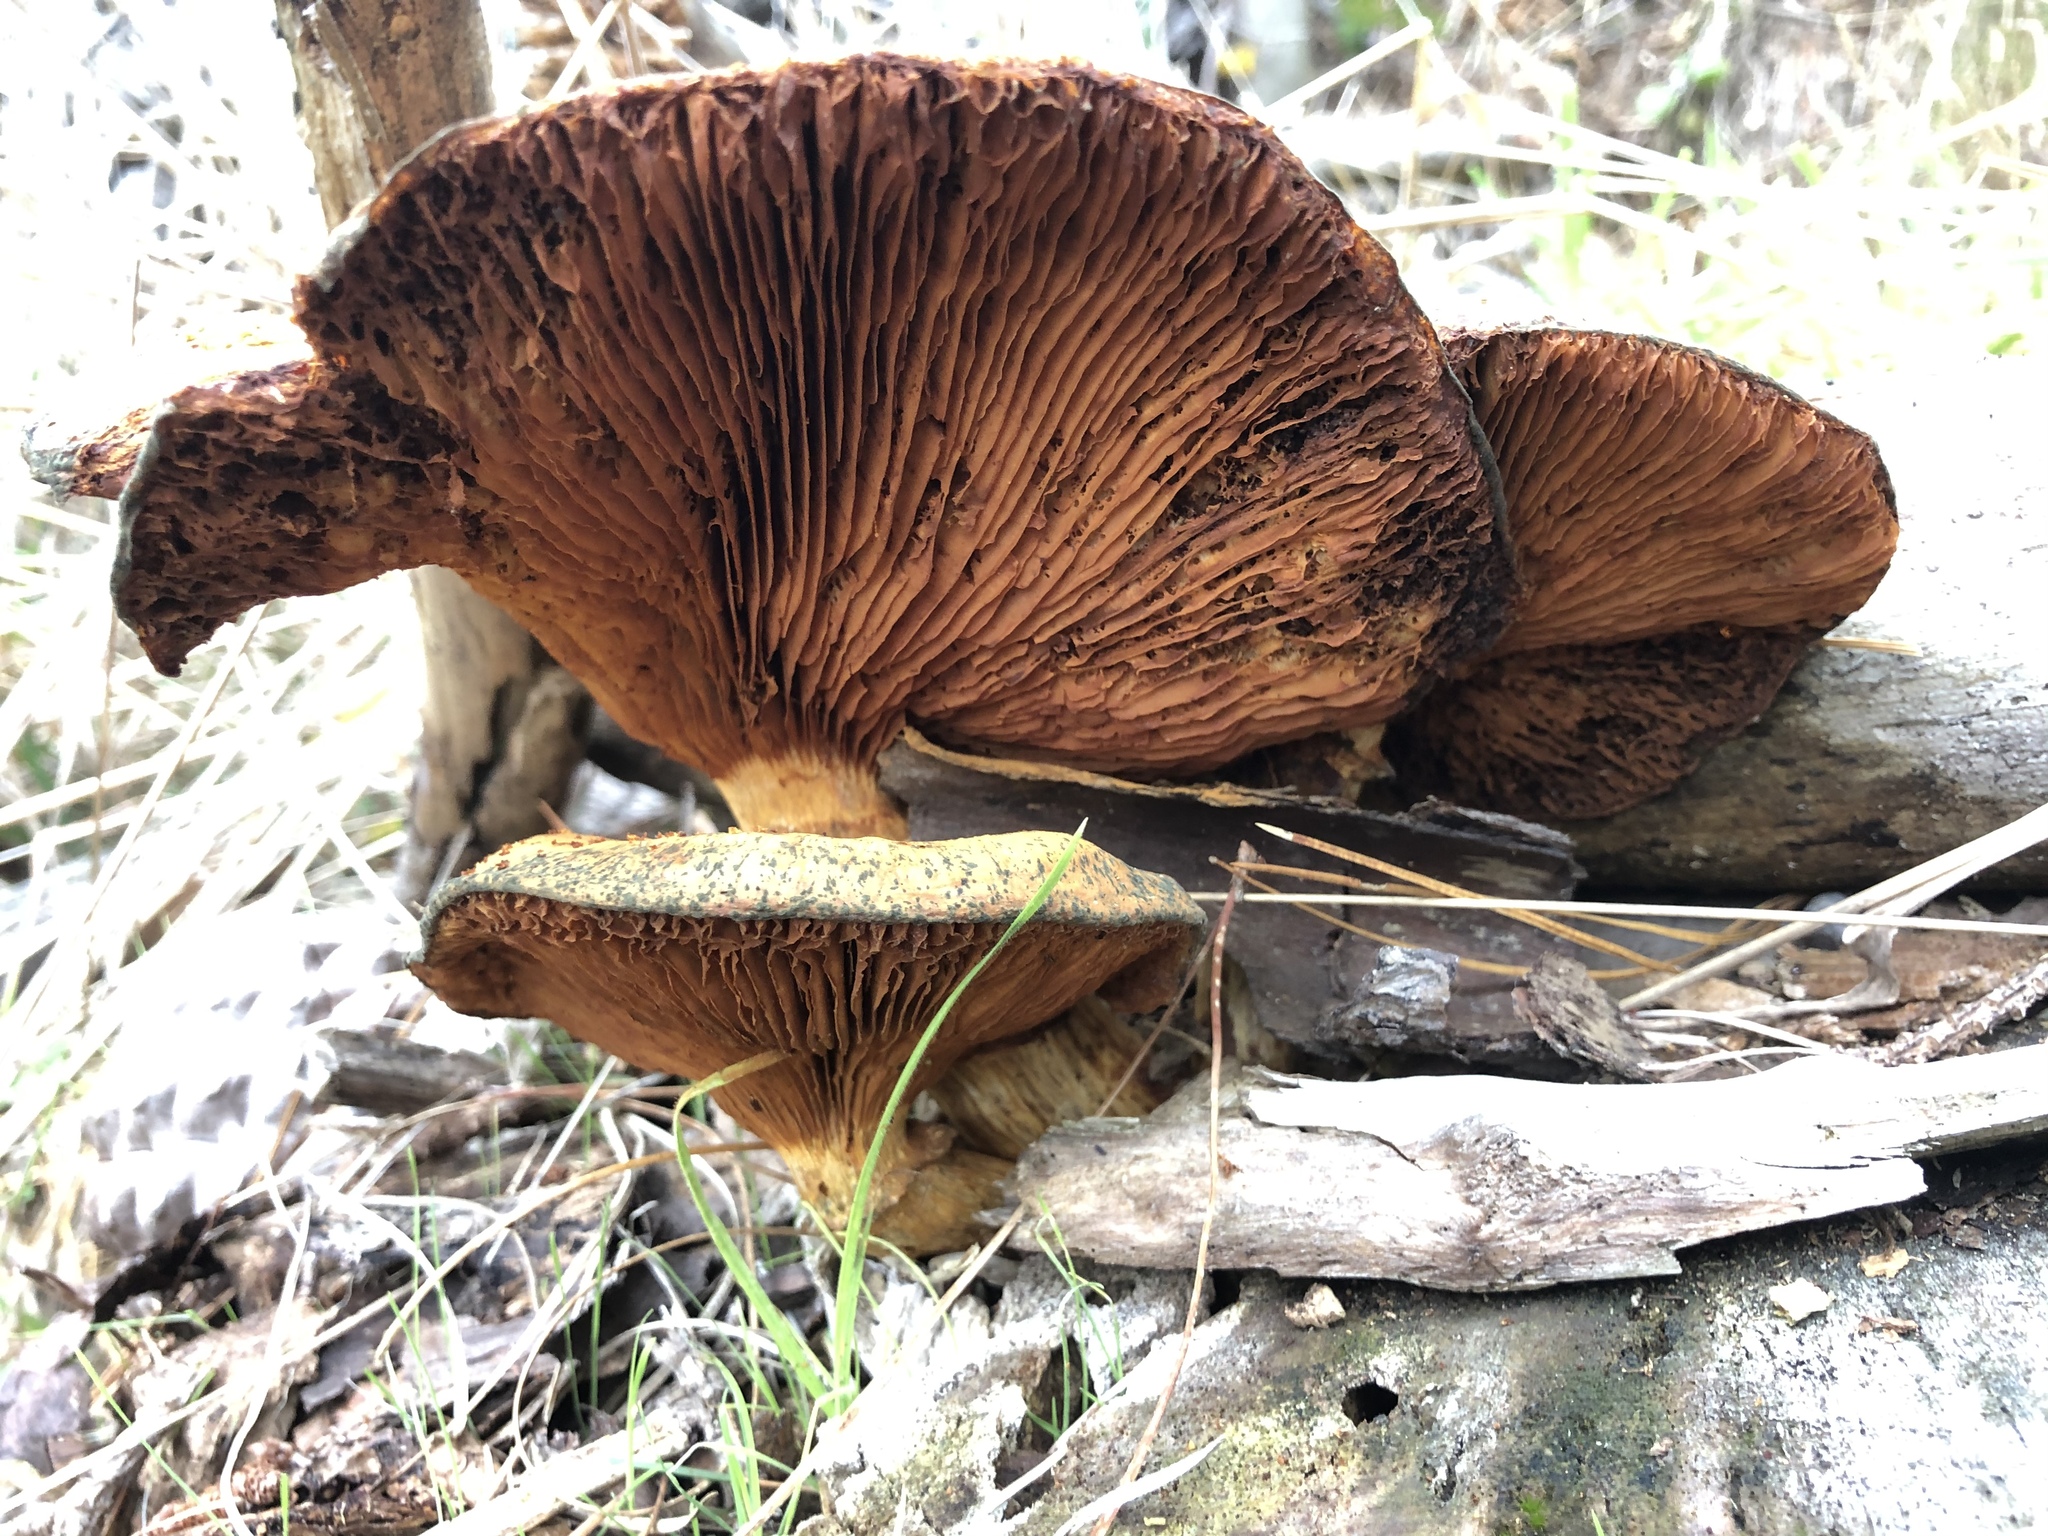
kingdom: Fungi
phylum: Basidiomycota
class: Agaricomycetes
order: Agaricales
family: Hymenogastraceae
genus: Gymnopilus
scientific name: Gymnopilus junonius
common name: Spectacular rustgill
